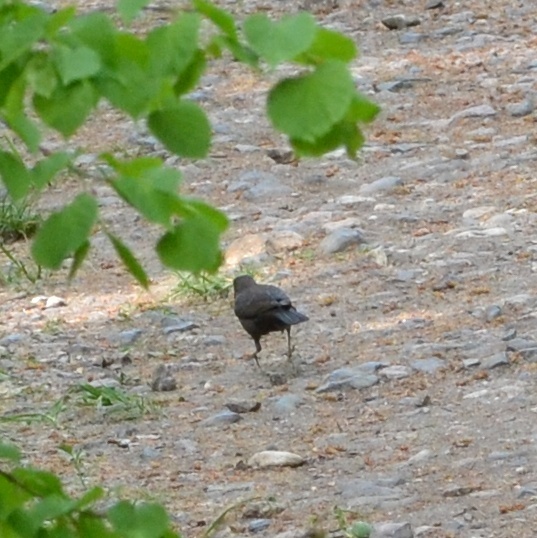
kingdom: Animalia
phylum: Chordata
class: Aves
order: Passeriformes
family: Turdidae
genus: Turdus
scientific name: Turdus merula
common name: Common blackbird
